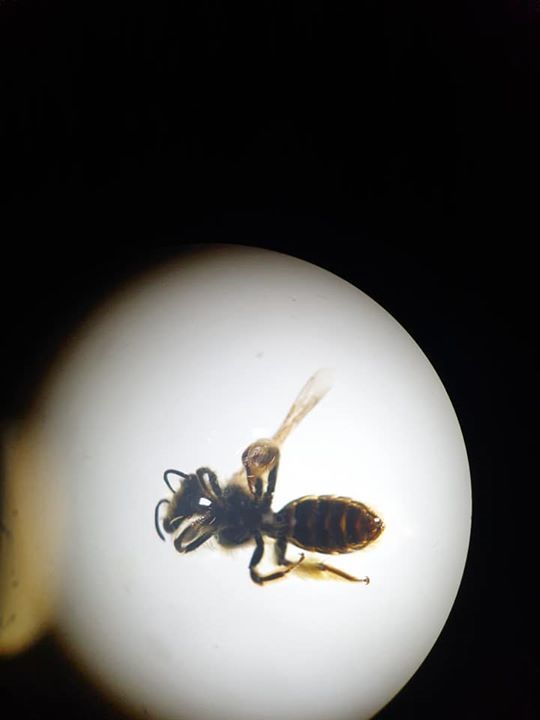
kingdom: Animalia
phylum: Arthropoda
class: Insecta
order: Hymenoptera
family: Colletidae
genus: Leioproctus
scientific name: Leioproctus fulvescens
